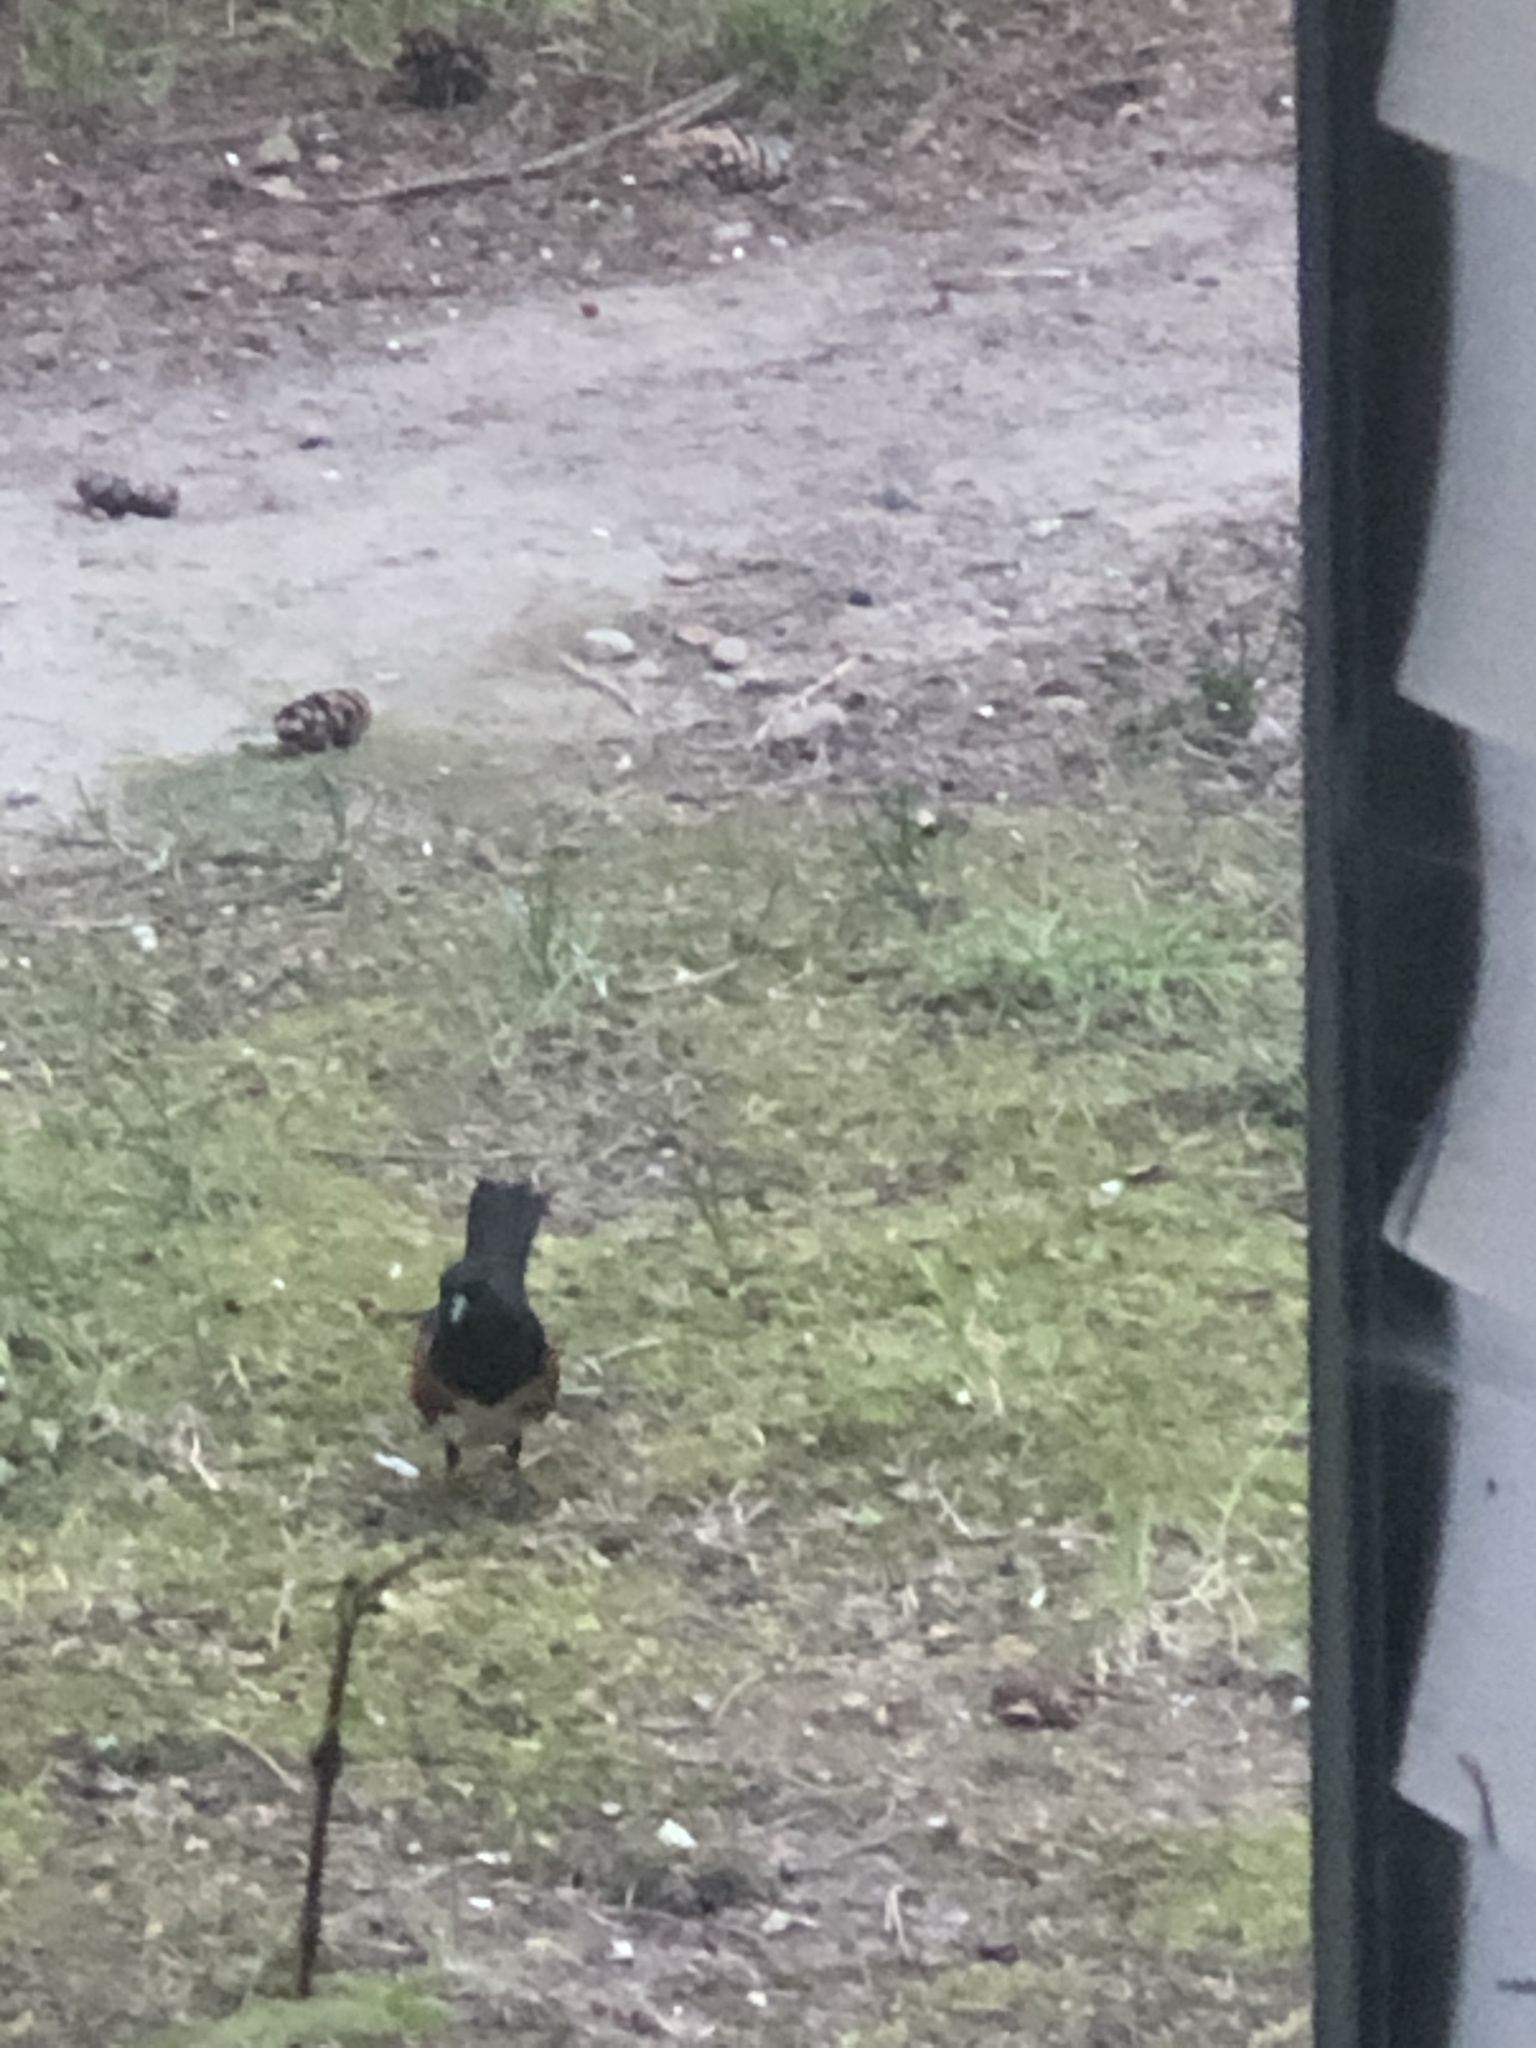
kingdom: Animalia
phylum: Chordata
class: Aves
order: Passeriformes
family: Passerellidae
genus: Pipilo
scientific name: Pipilo maculatus
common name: Spotted towhee
